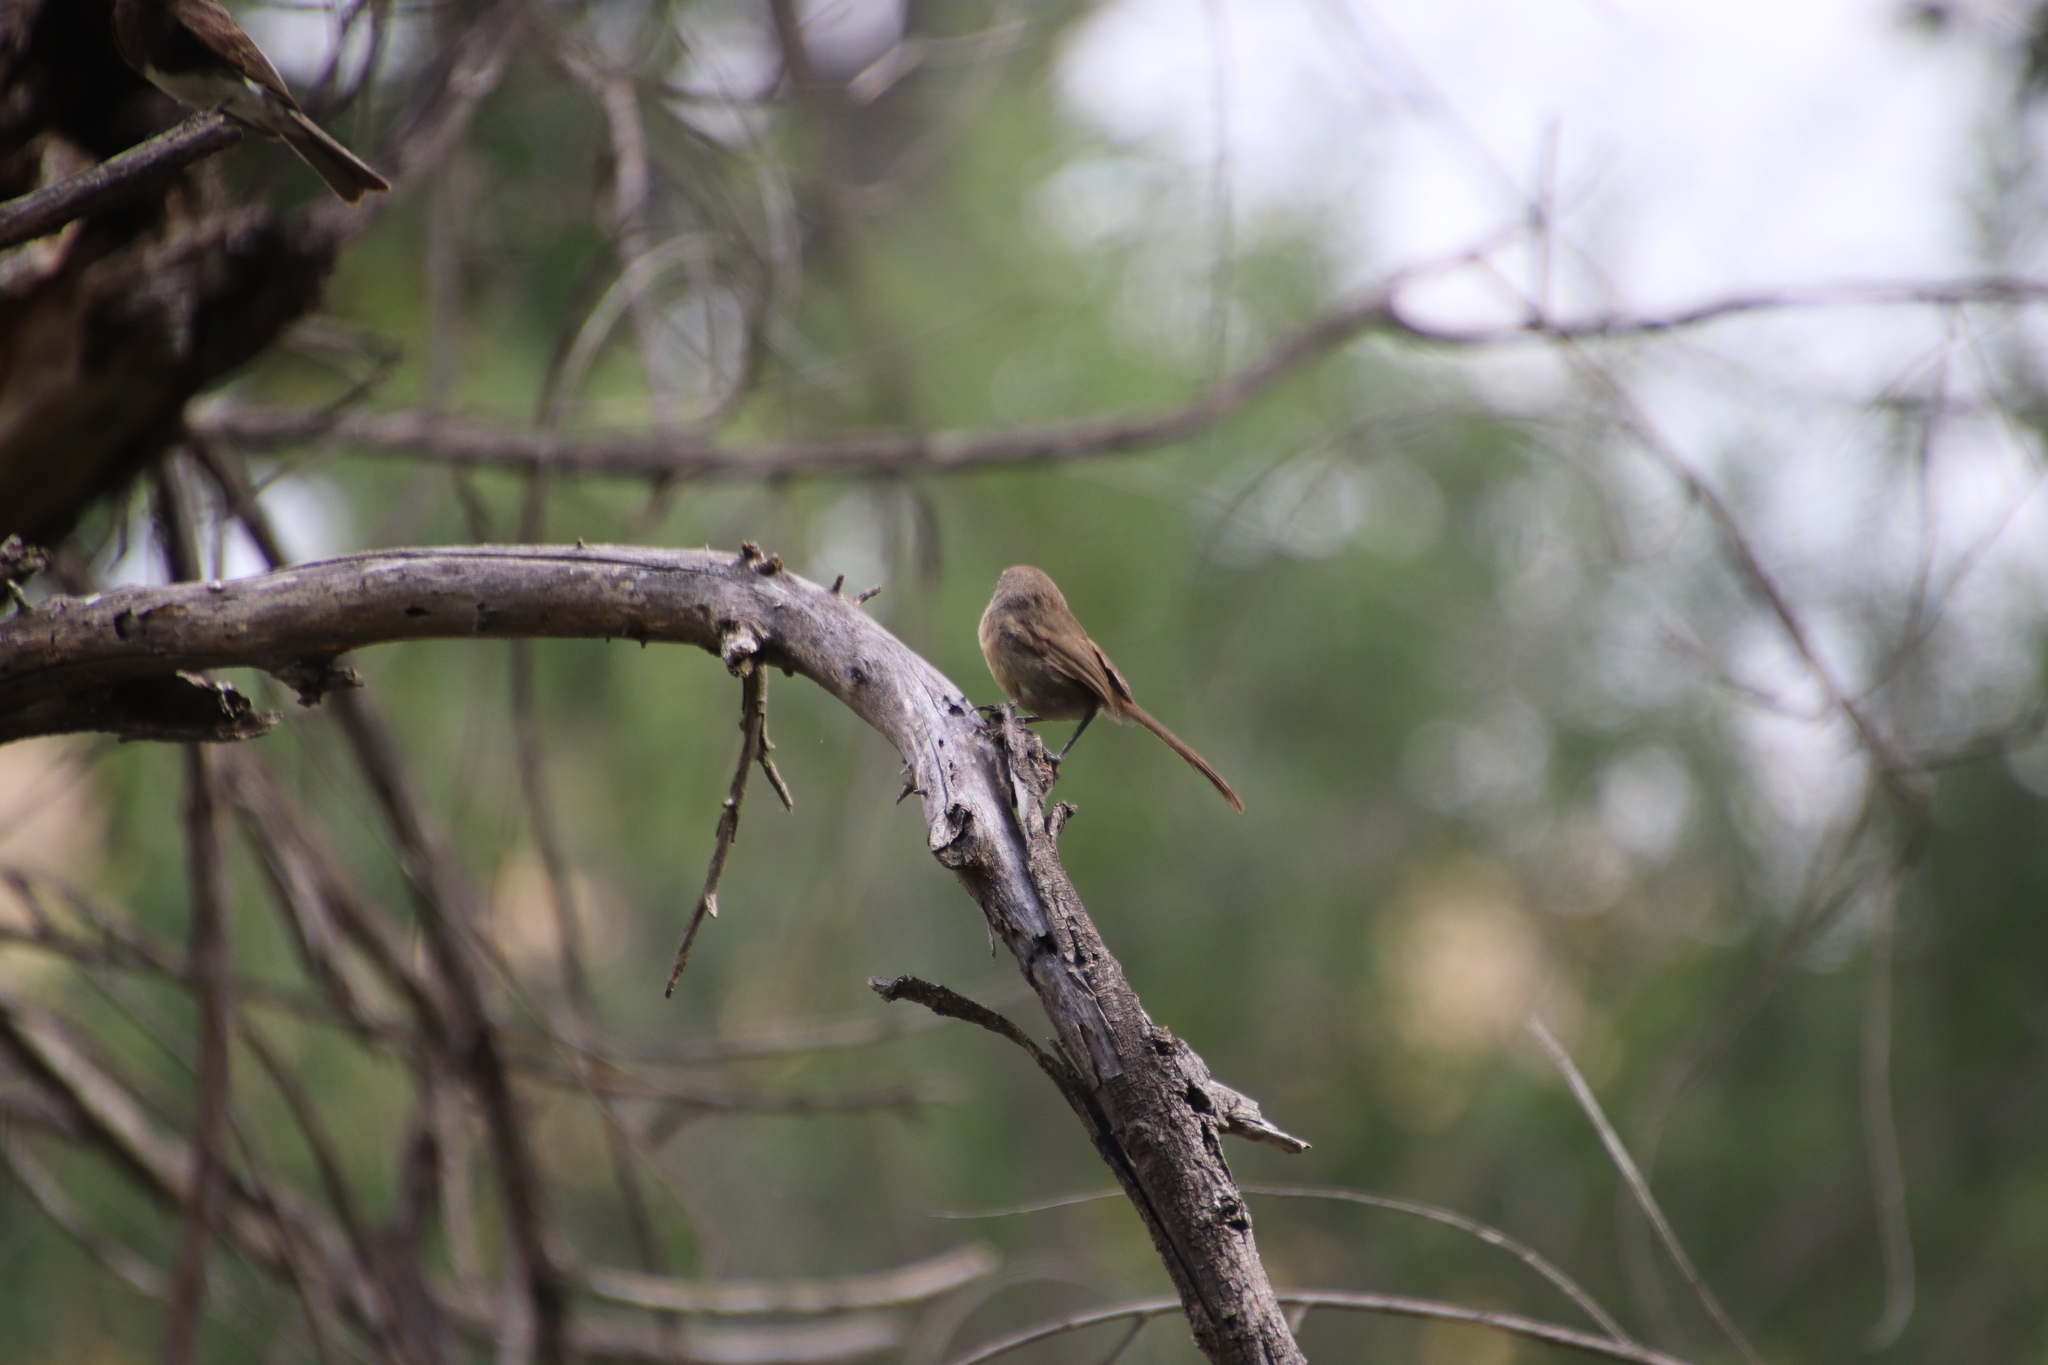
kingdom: Animalia
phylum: Chordata
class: Aves
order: Passeriformes
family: Sylviidae
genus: Chamaea
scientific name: Chamaea fasciata
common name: Wrentit
